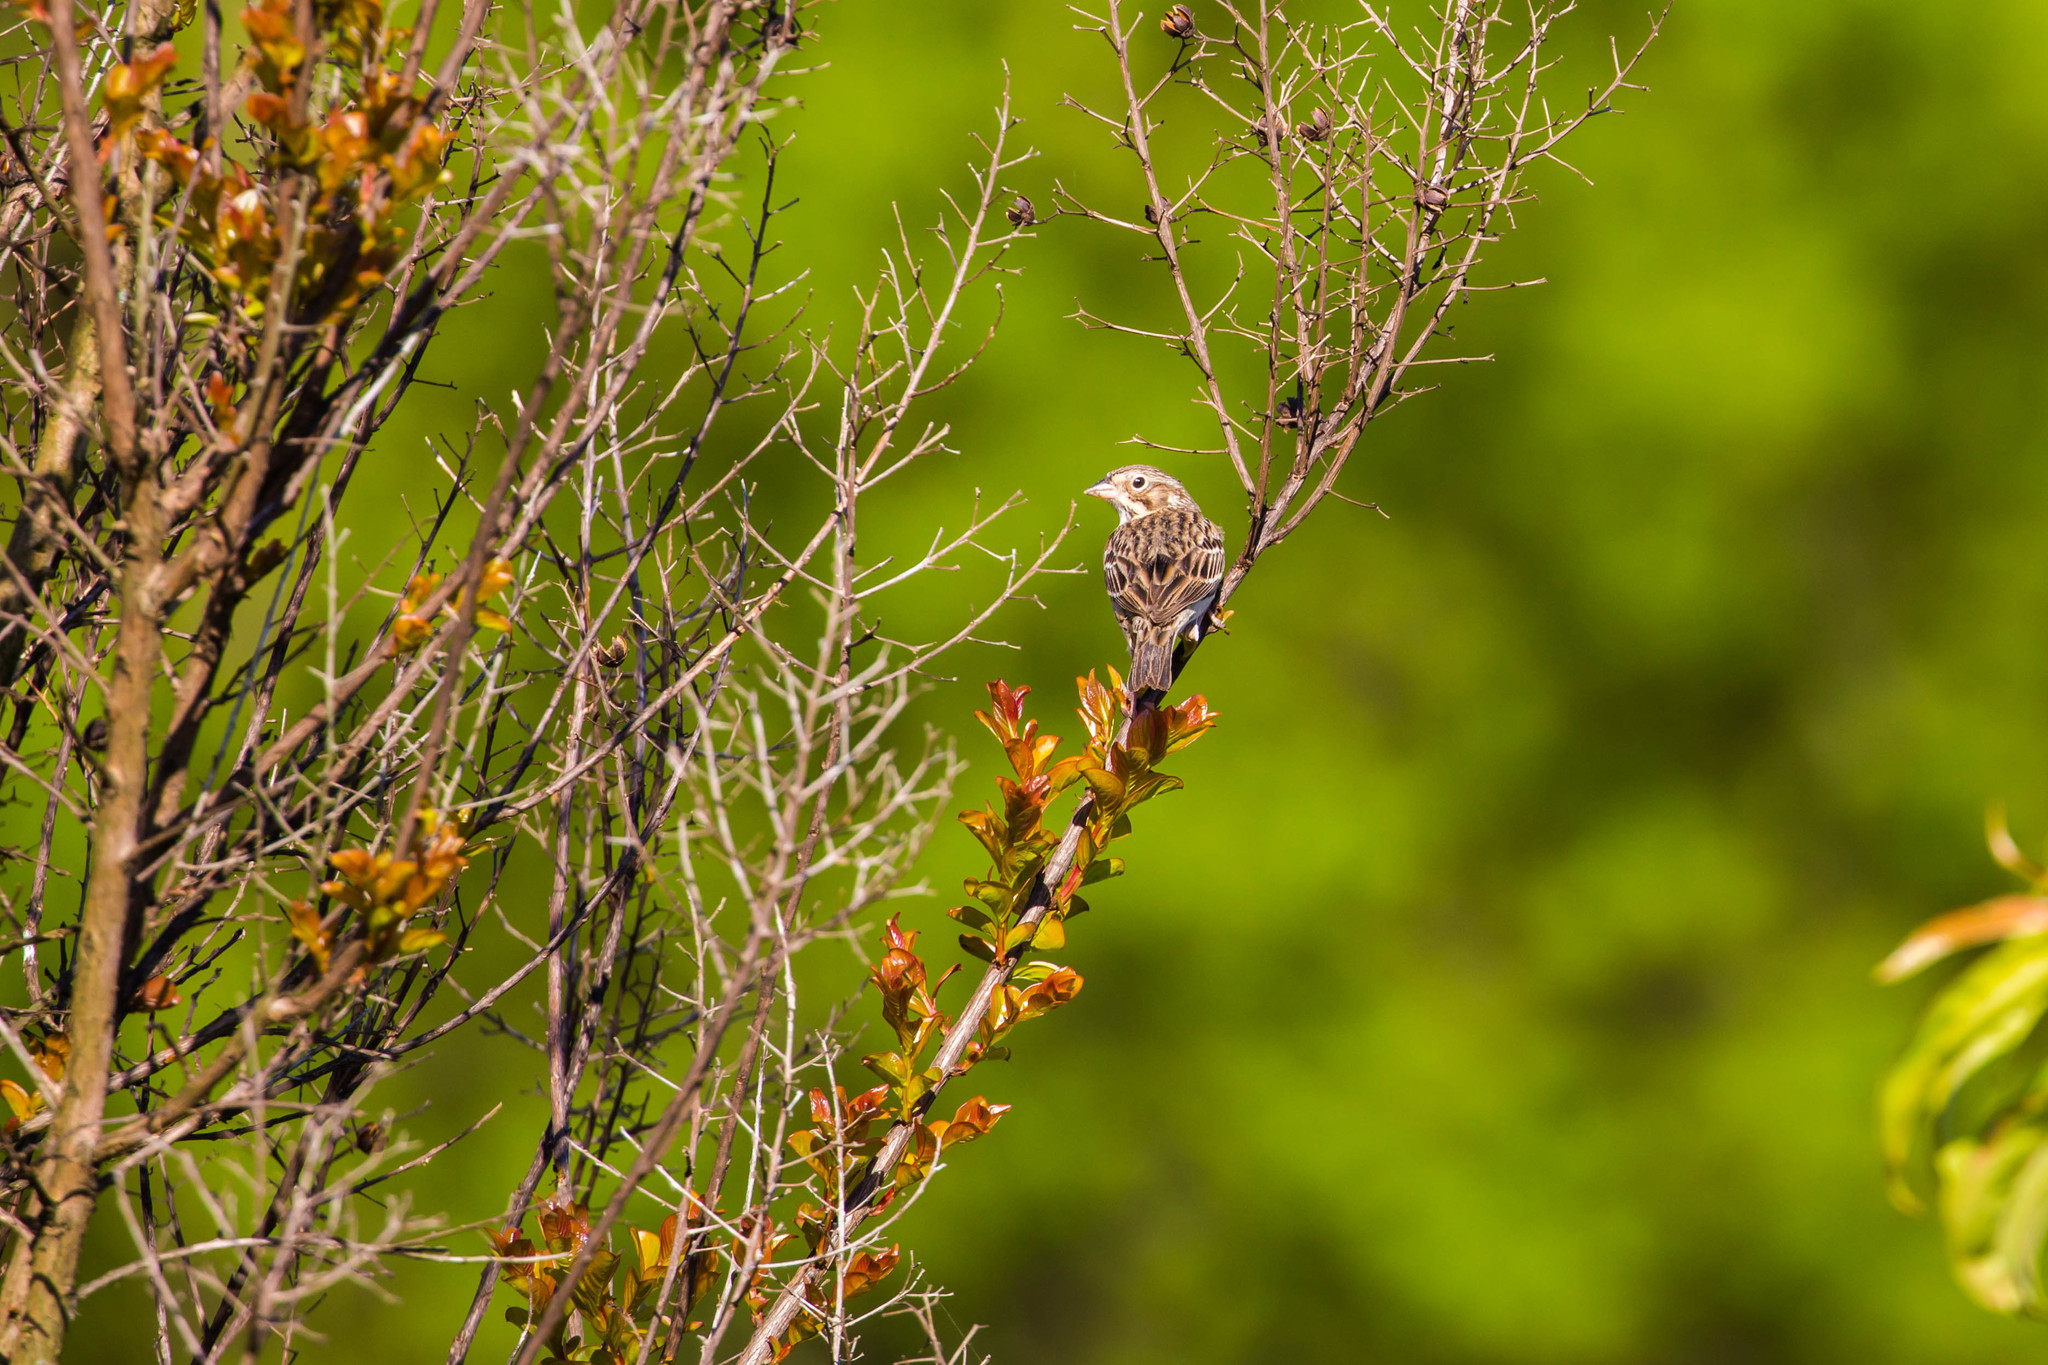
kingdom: Animalia
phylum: Chordata
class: Aves
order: Passeriformes
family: Passerellidae
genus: Pooecetes
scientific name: Pooecetes gramineus
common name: Vesper sparrow
